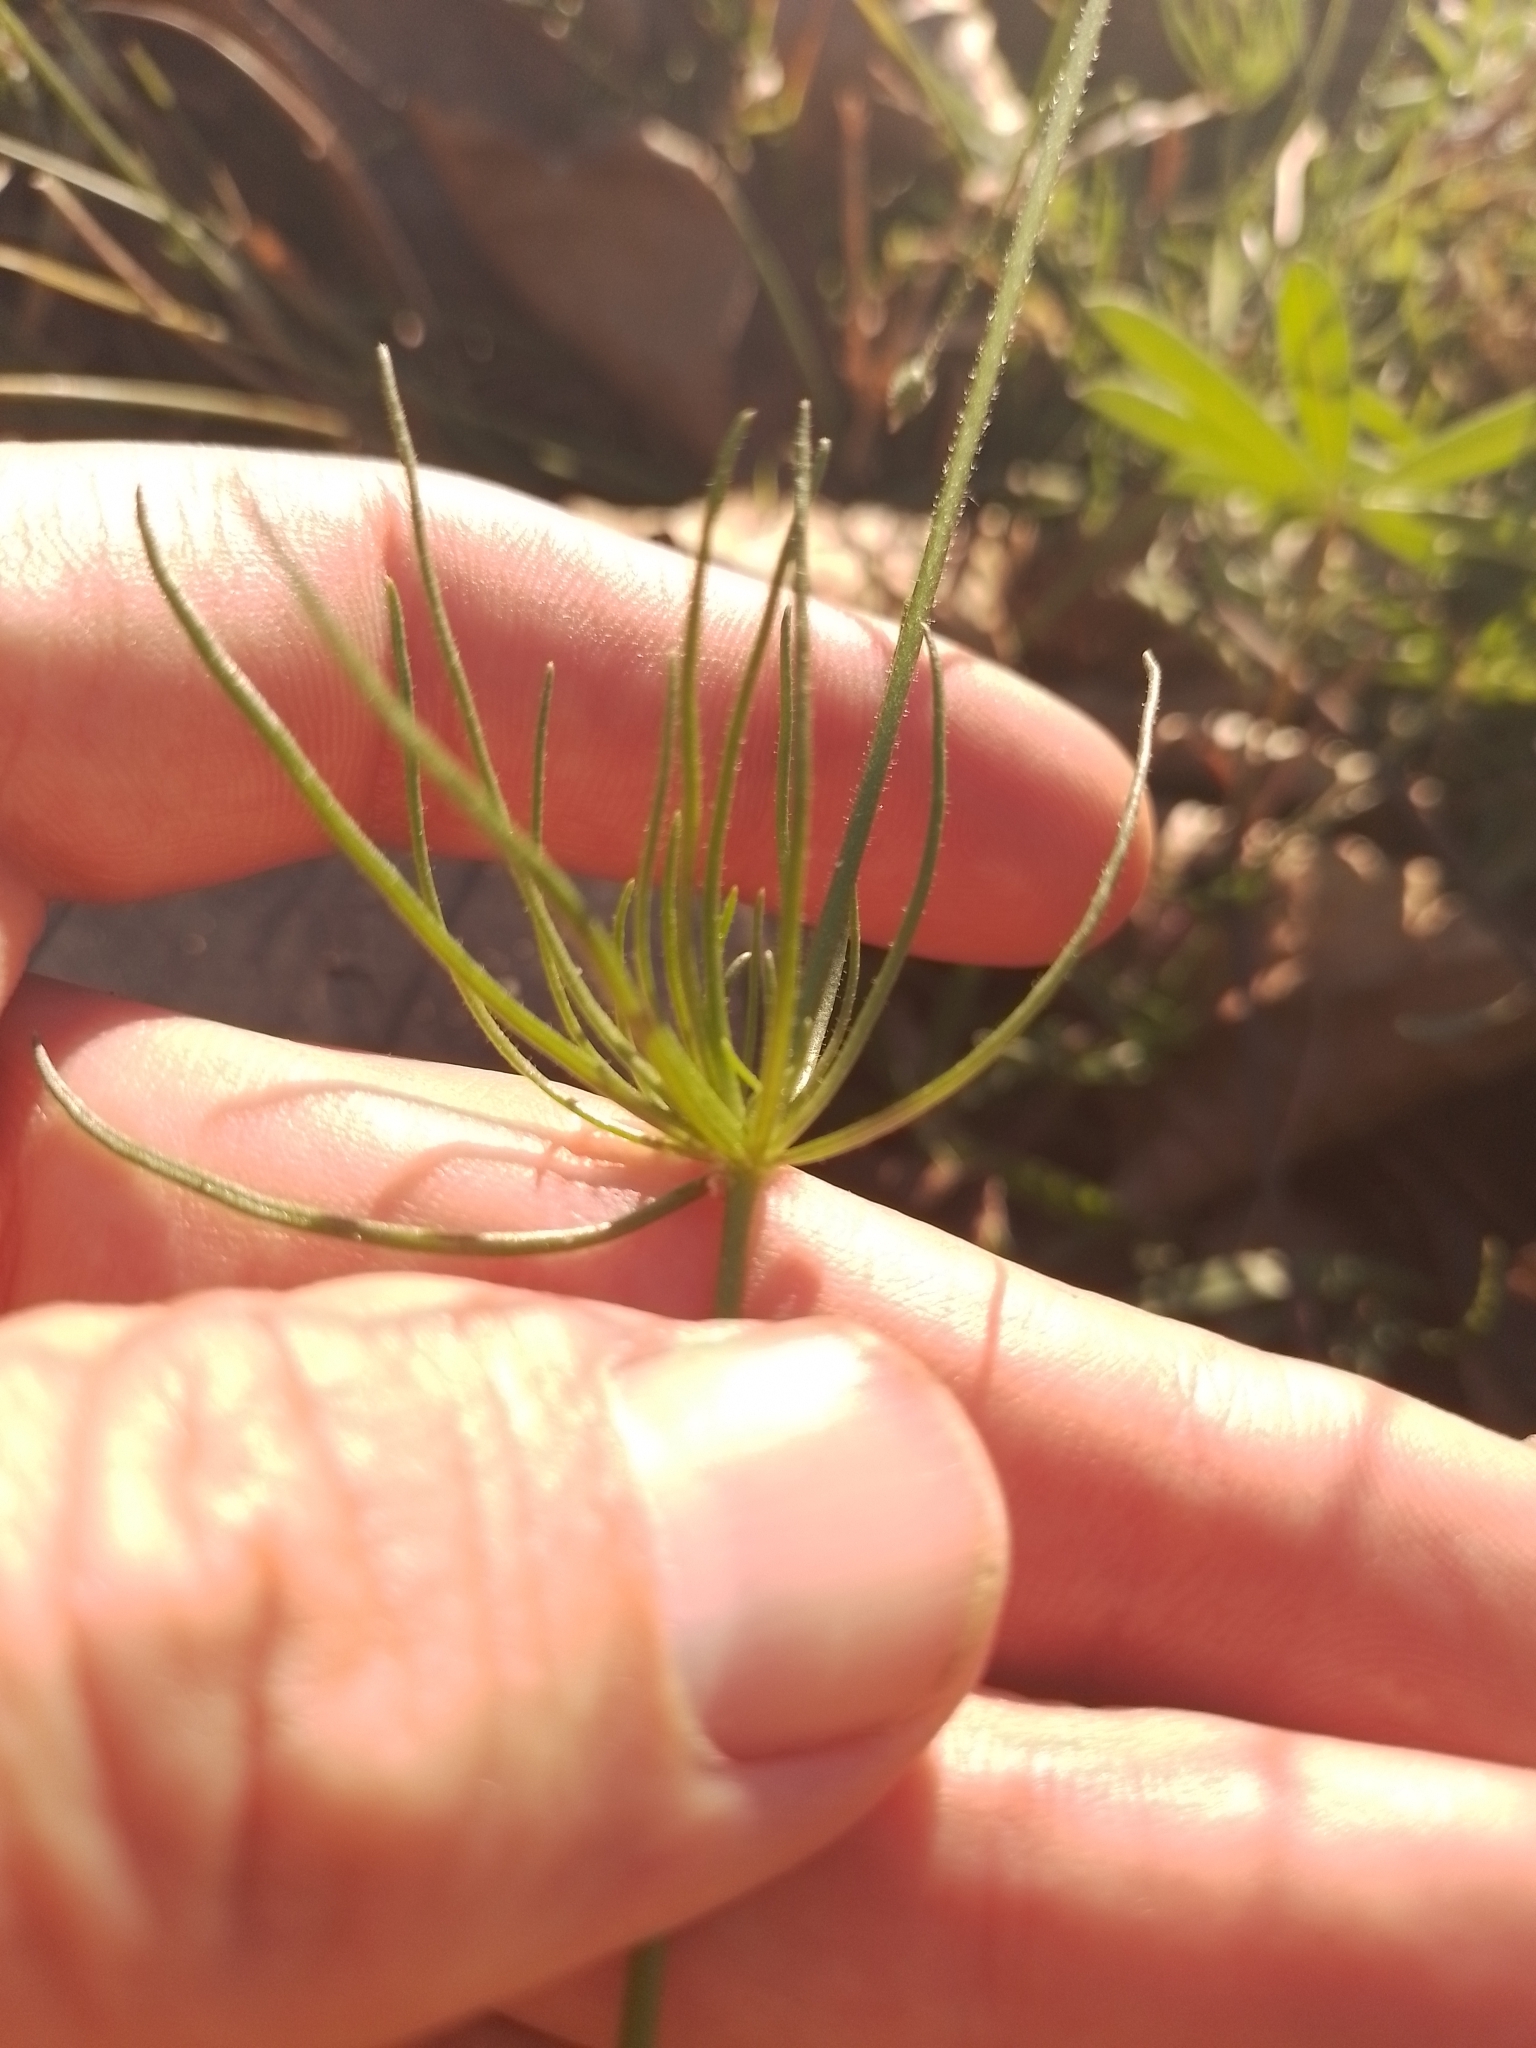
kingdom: Plantae
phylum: Tracheophyta
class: Magnoliopsida
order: Caryophyllales
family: Caryophyllaceae
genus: Spergula
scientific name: Spergula arvensis
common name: Corn spurrey
